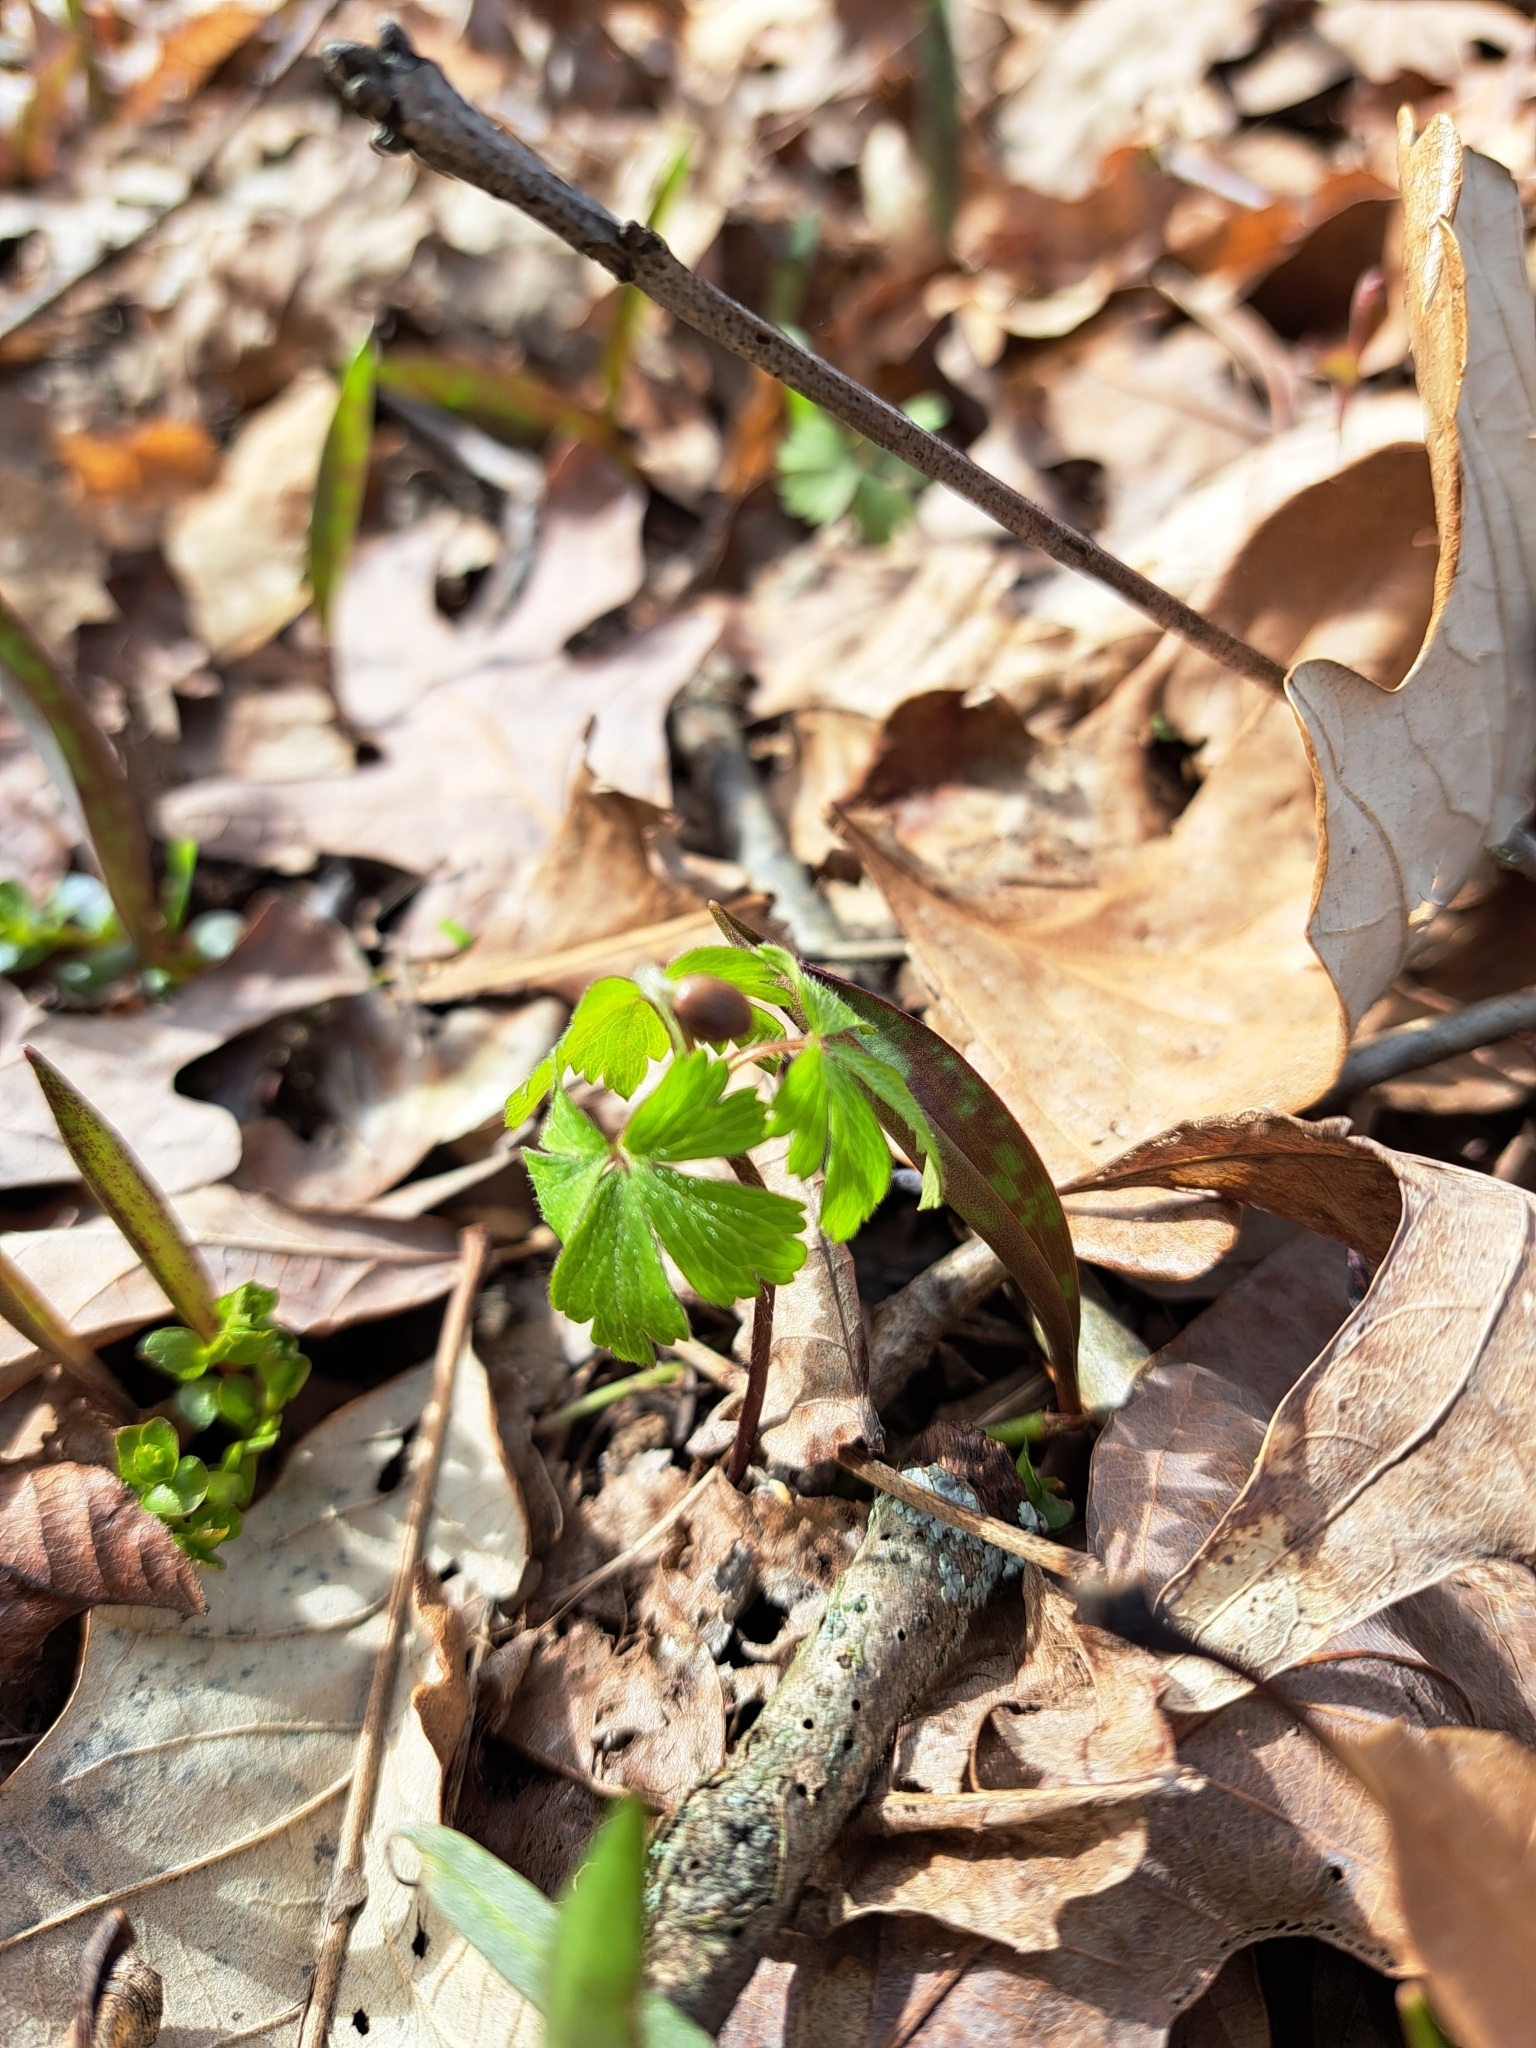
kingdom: Plantae
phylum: Tracheophyta
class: Magnoliopsida
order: Ranunculales
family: Ranunculaceae
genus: Anemone
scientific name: Anemone quinquefolia
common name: Wood anemone
